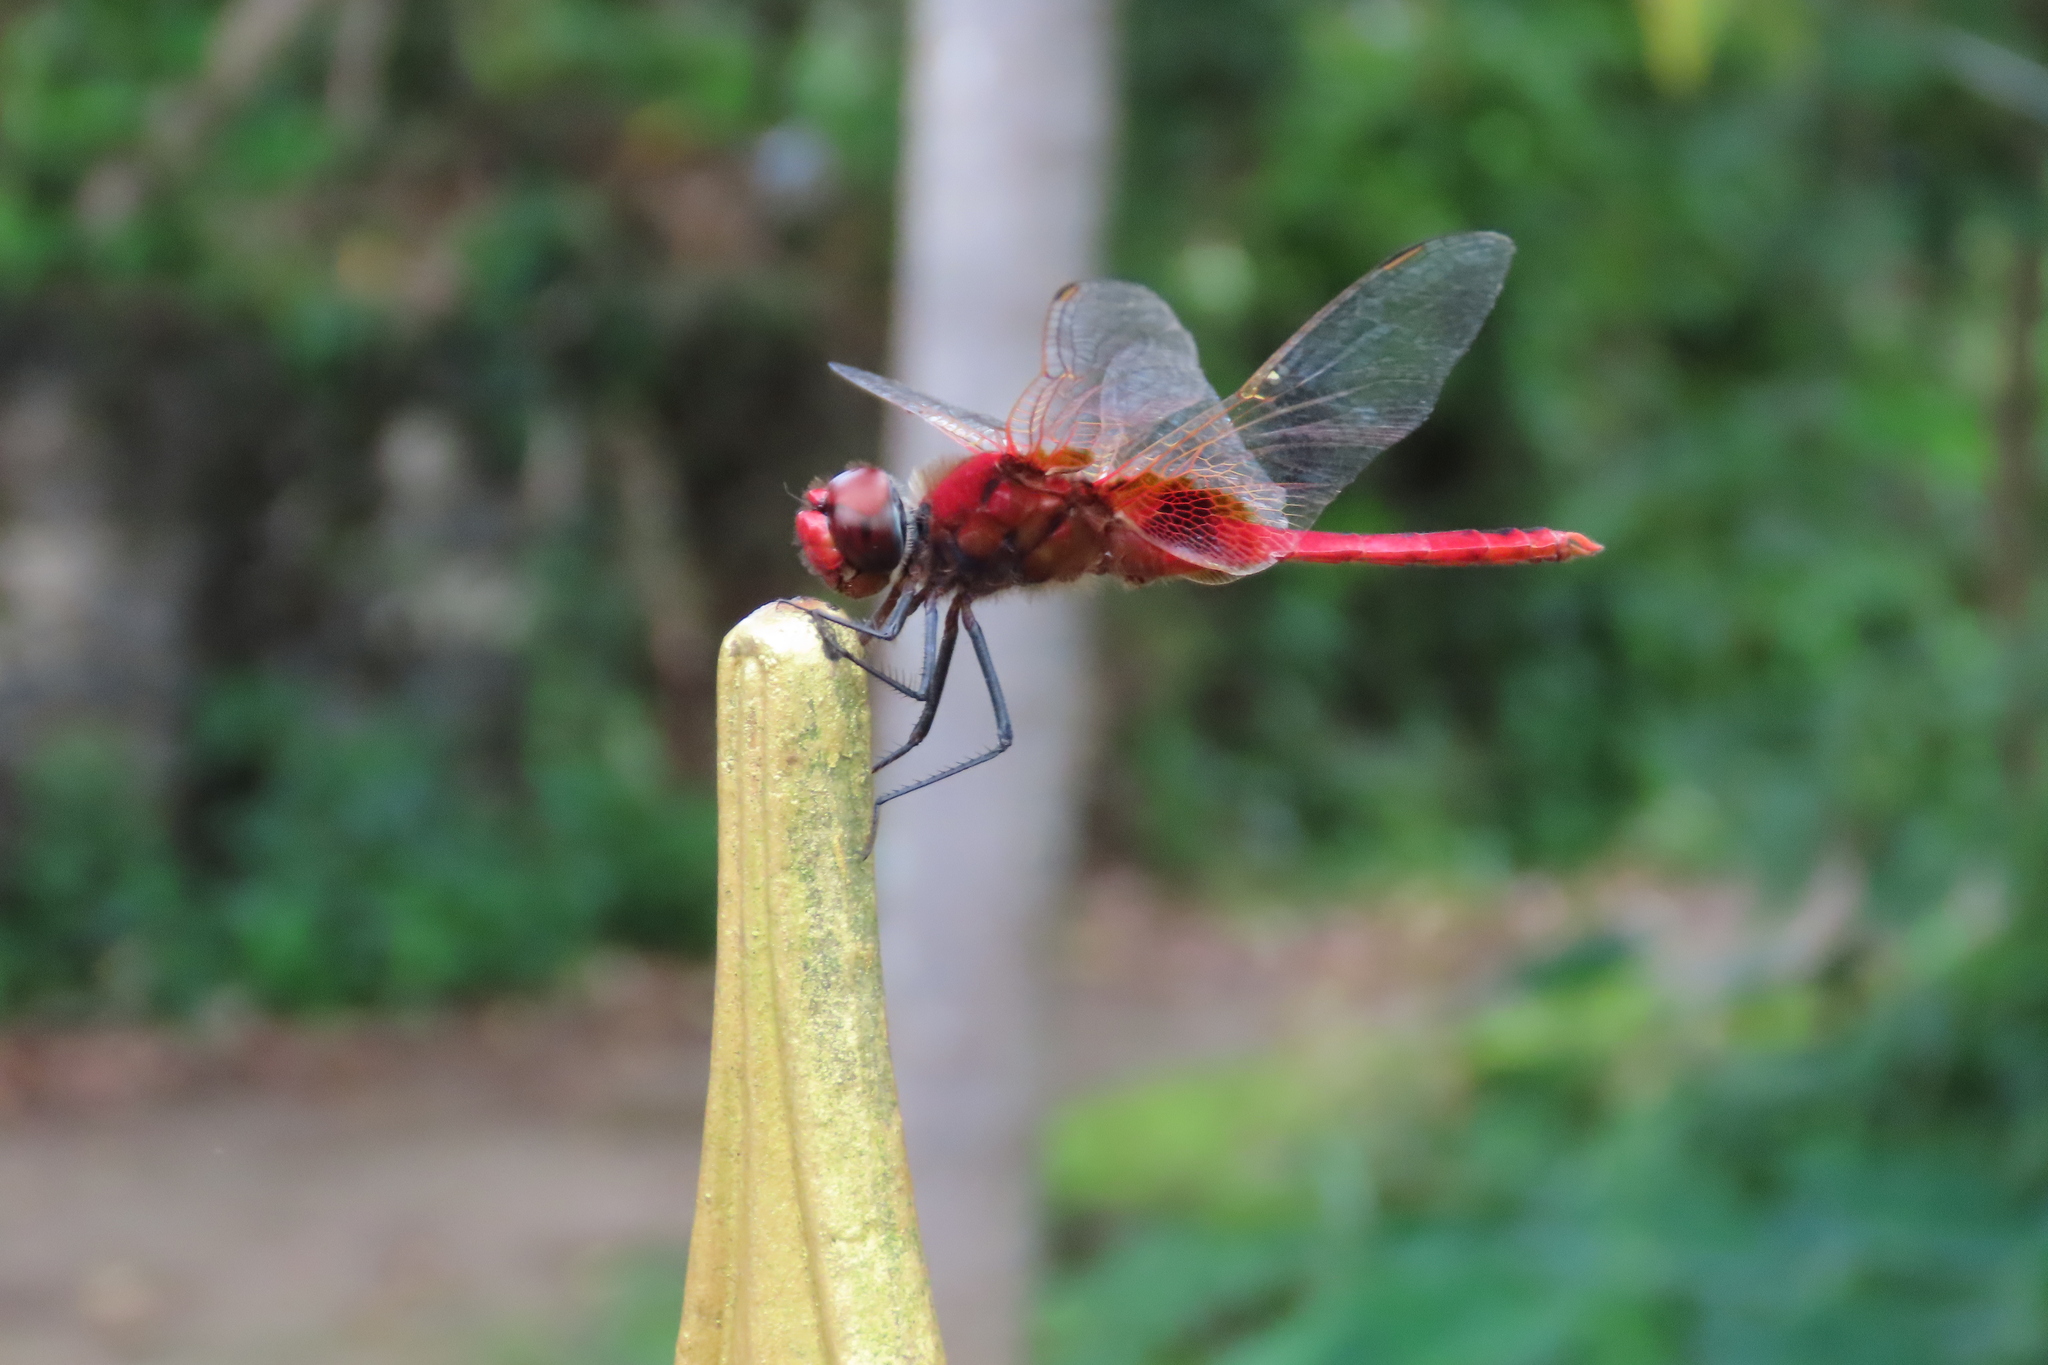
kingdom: Animalia
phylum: Arthropoda
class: Insecta
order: Odonata
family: Libellulidae
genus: Urothemis
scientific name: Urothemis signata
